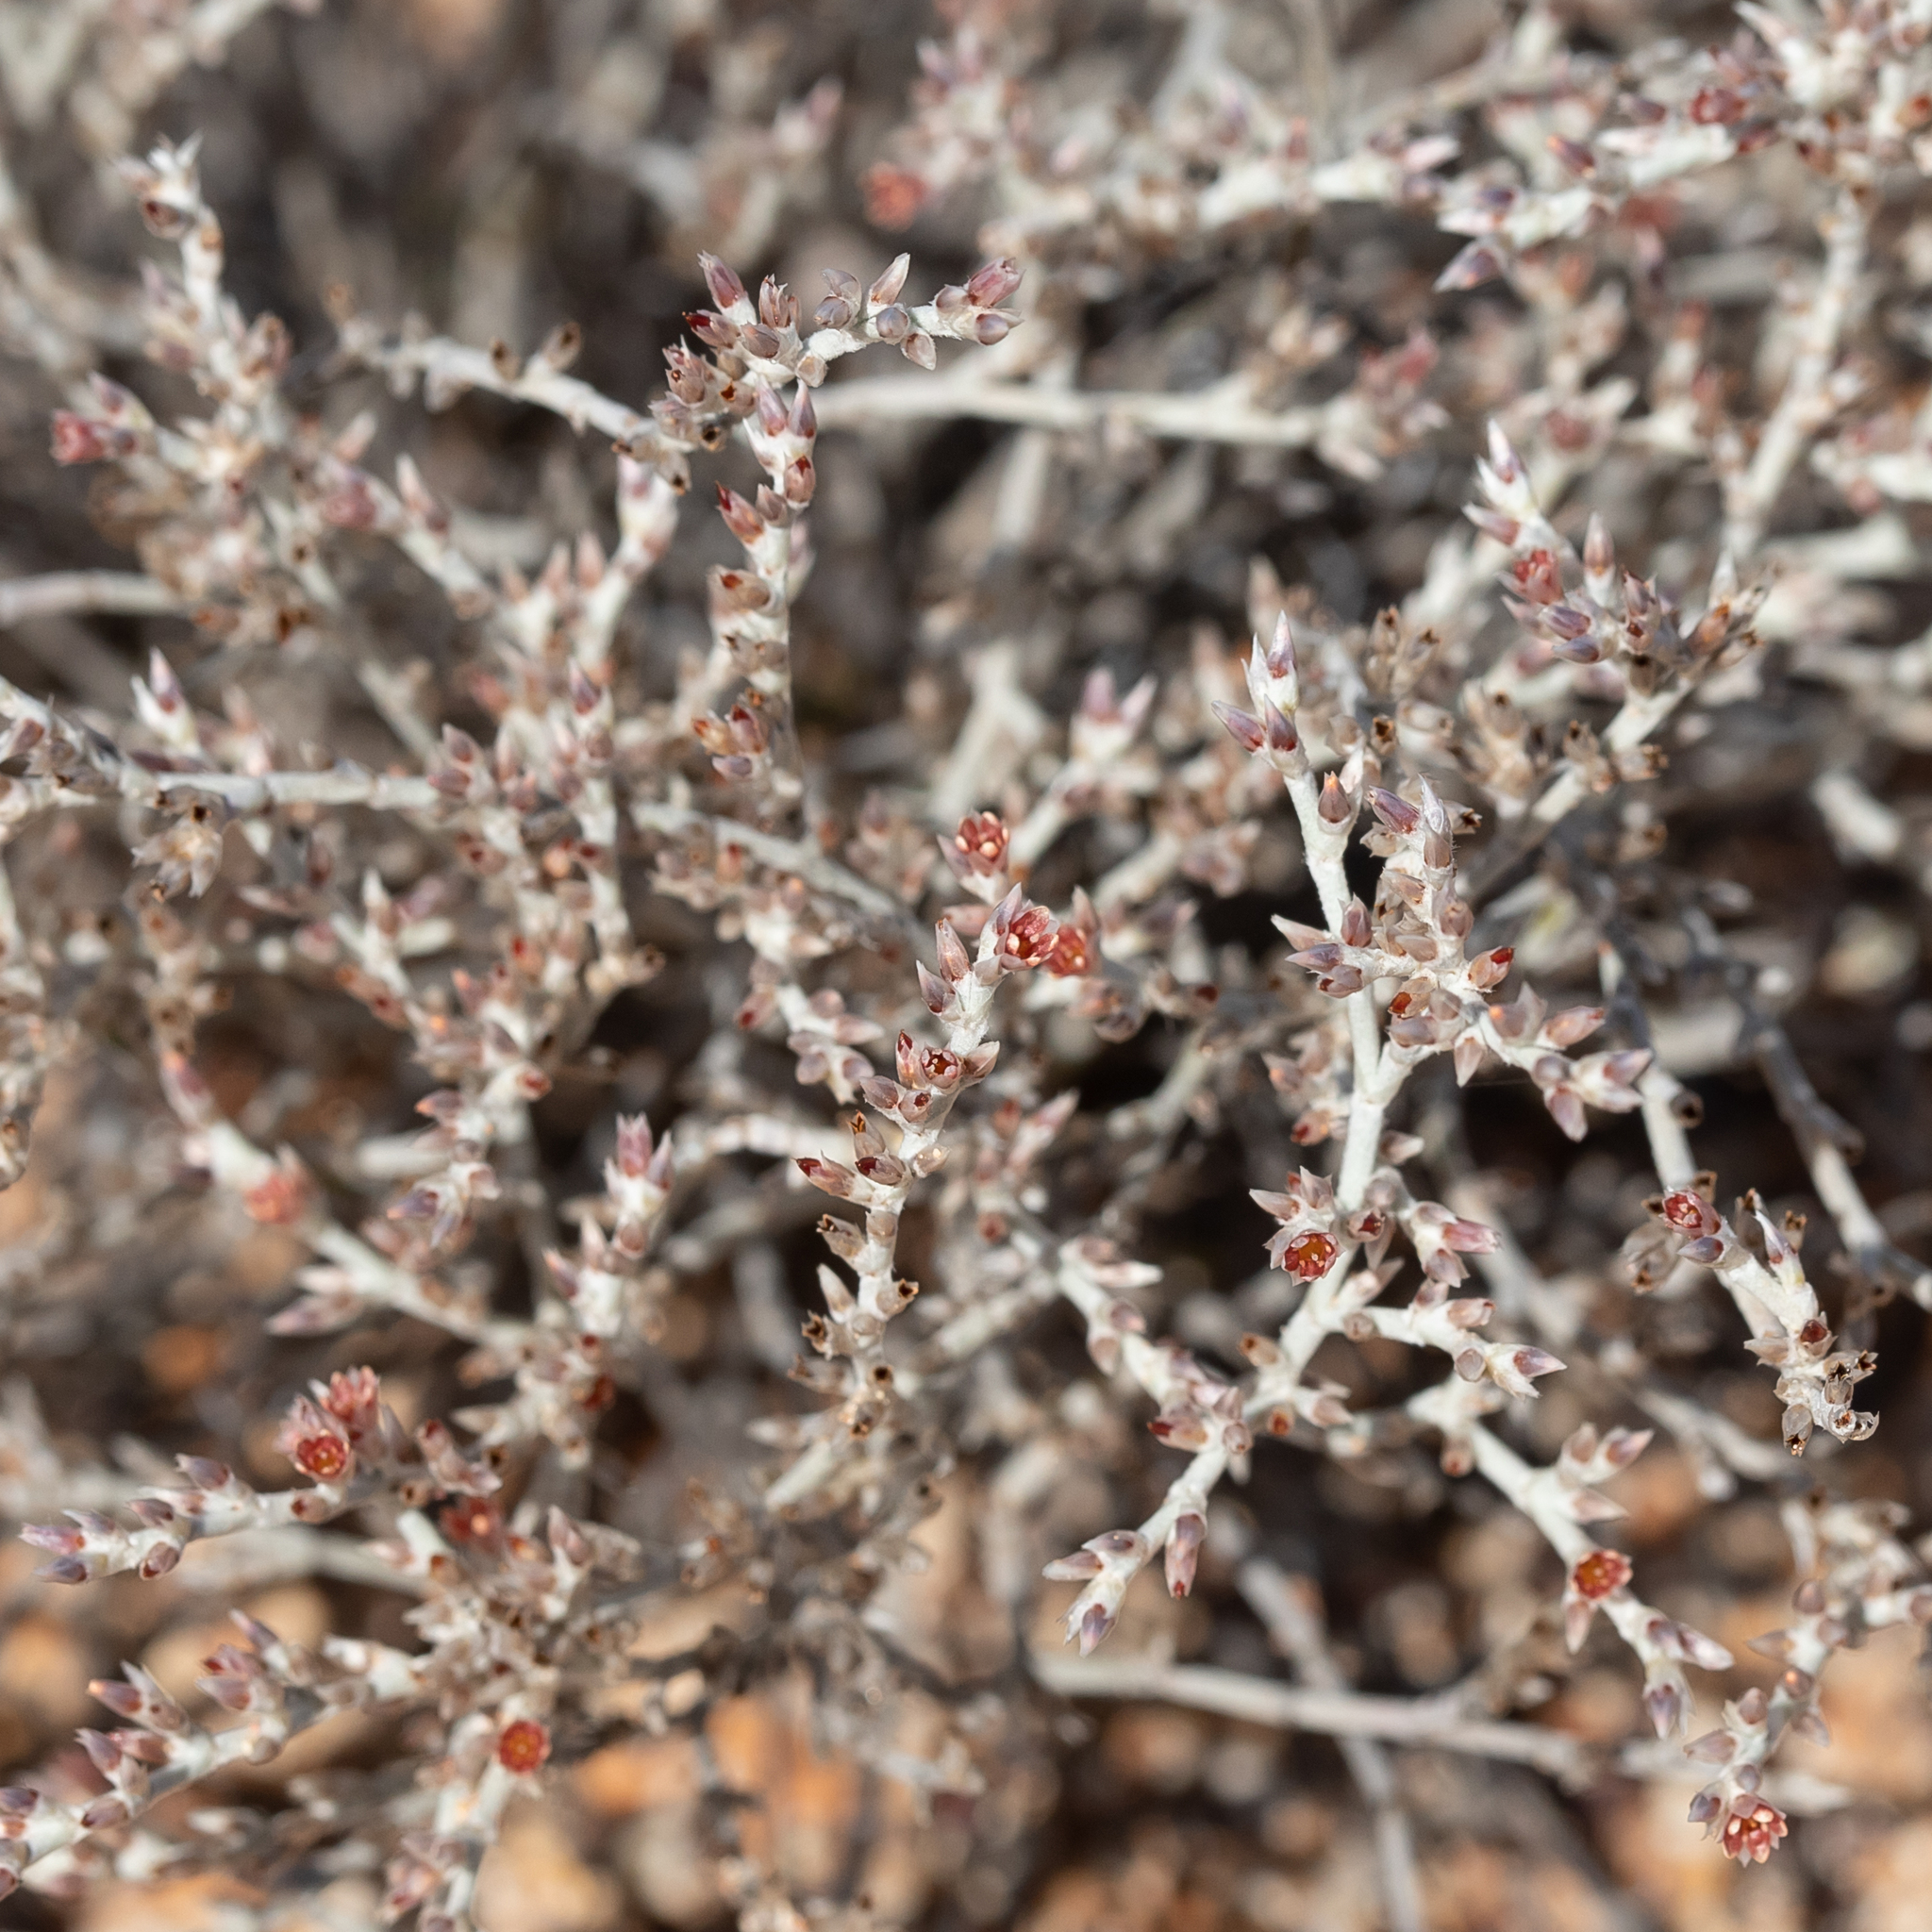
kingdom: Plantae
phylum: Tracheophyta
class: Magnoliopsida
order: Caryophyllales
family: Caryophyllaceae
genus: Polycarpaea
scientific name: Polycarpaea multicaulis
